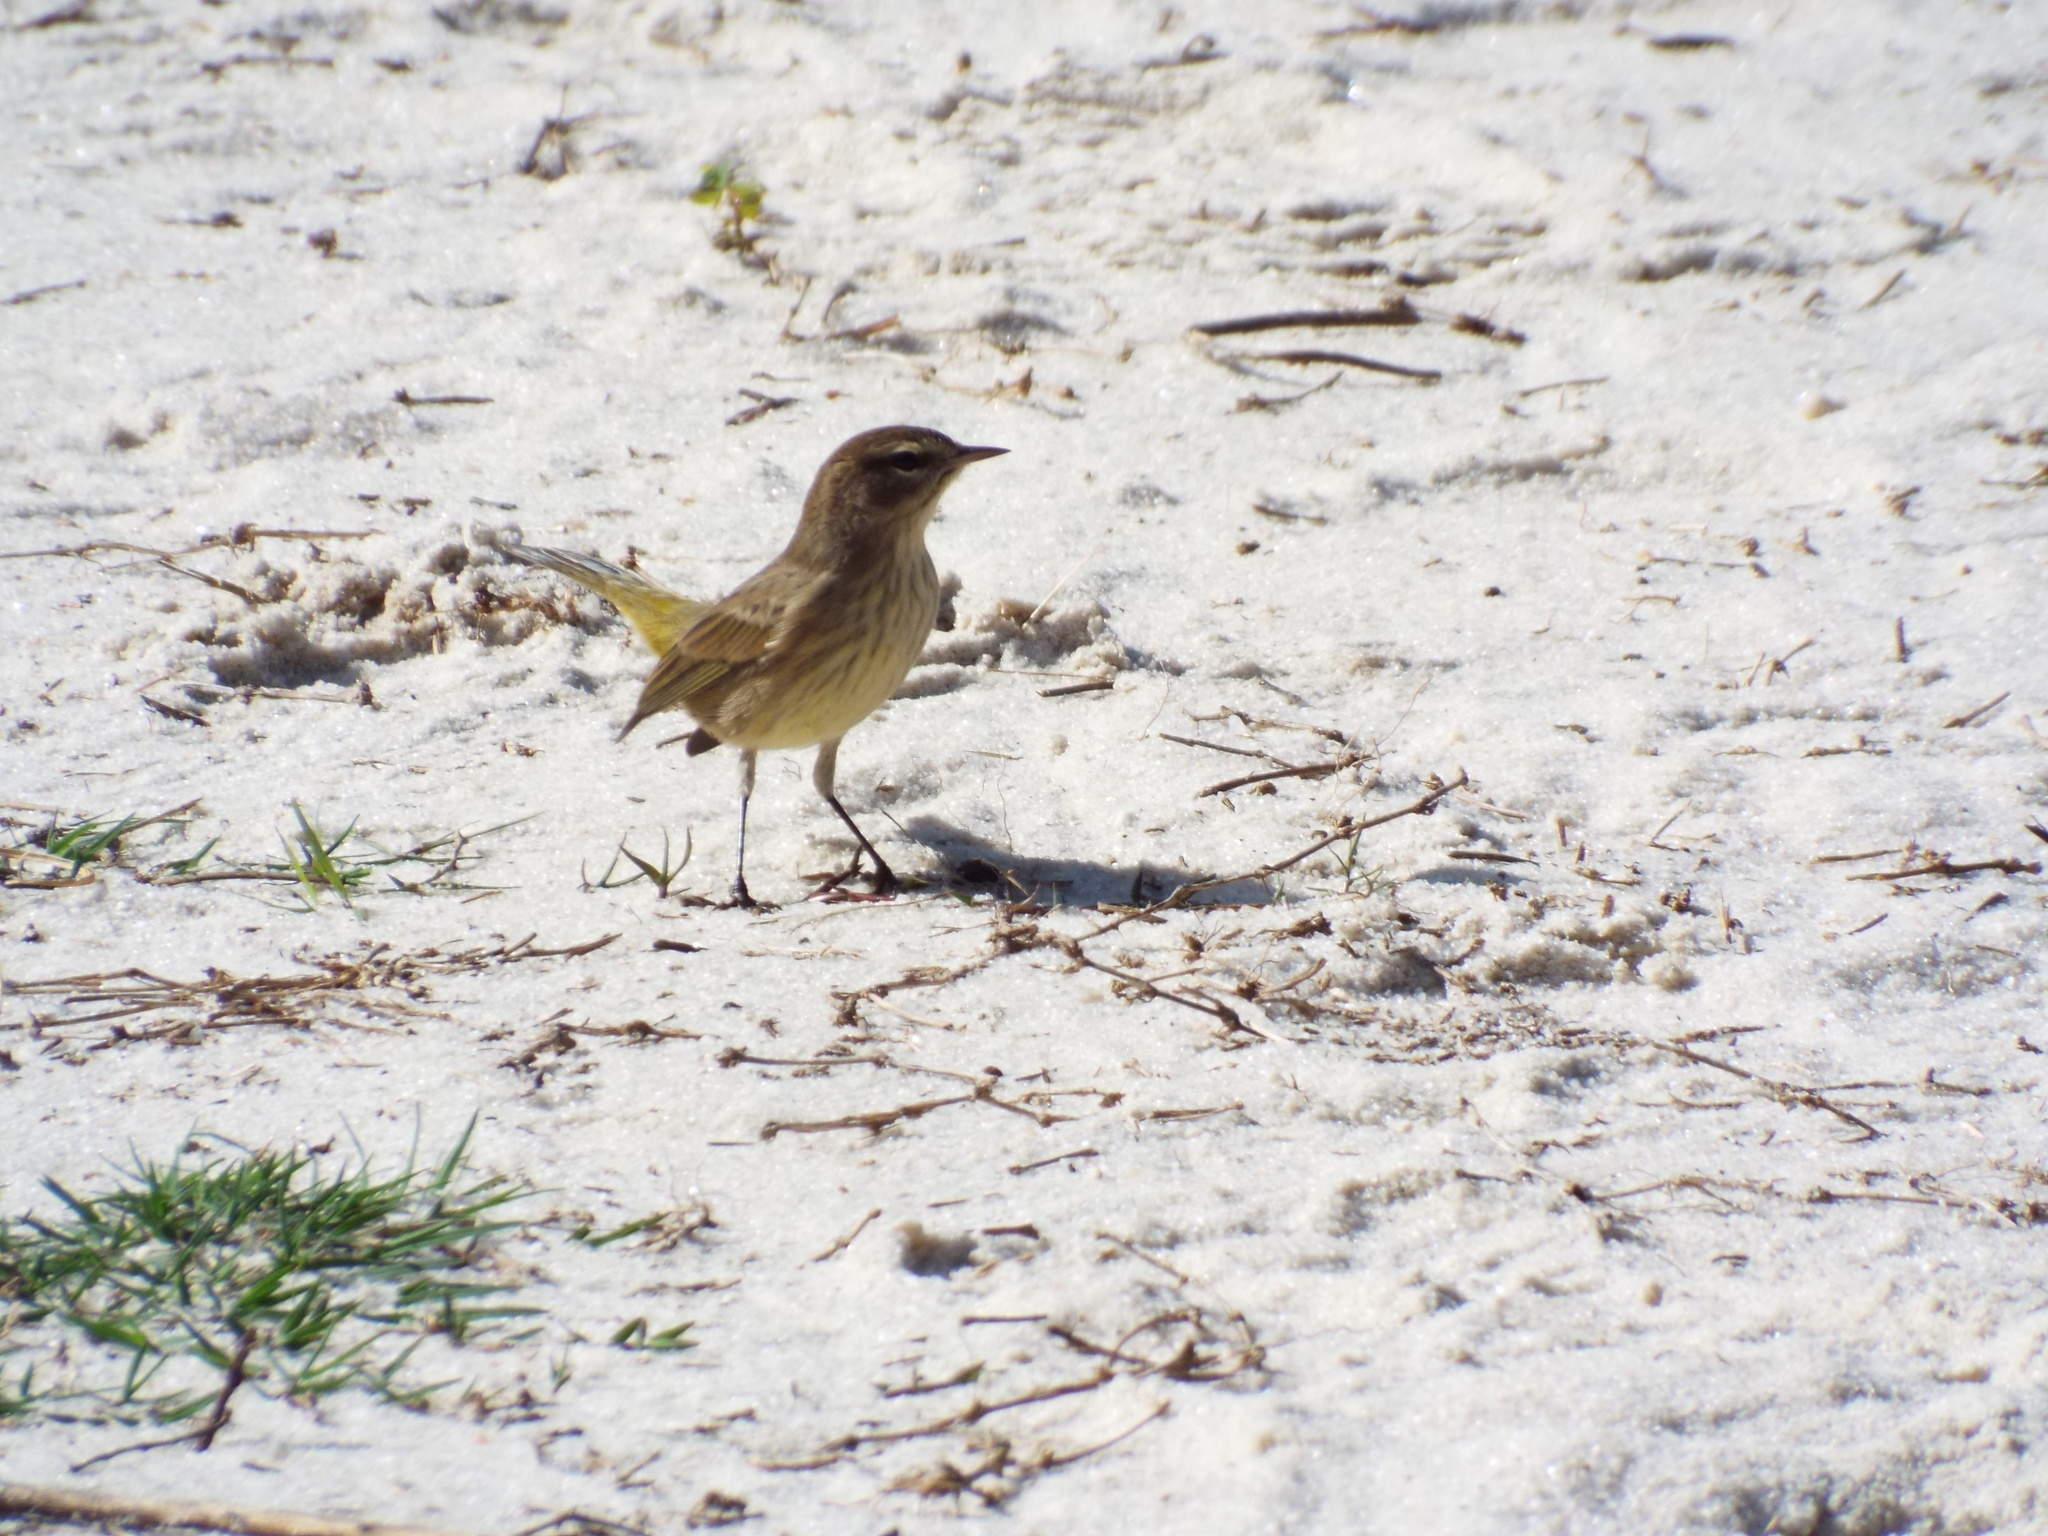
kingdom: Animalia
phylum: Chordata
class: Aves
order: Passeriformes
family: Parulidae
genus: Setophaga
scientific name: Setophaga palmarum
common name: Palm warbler
